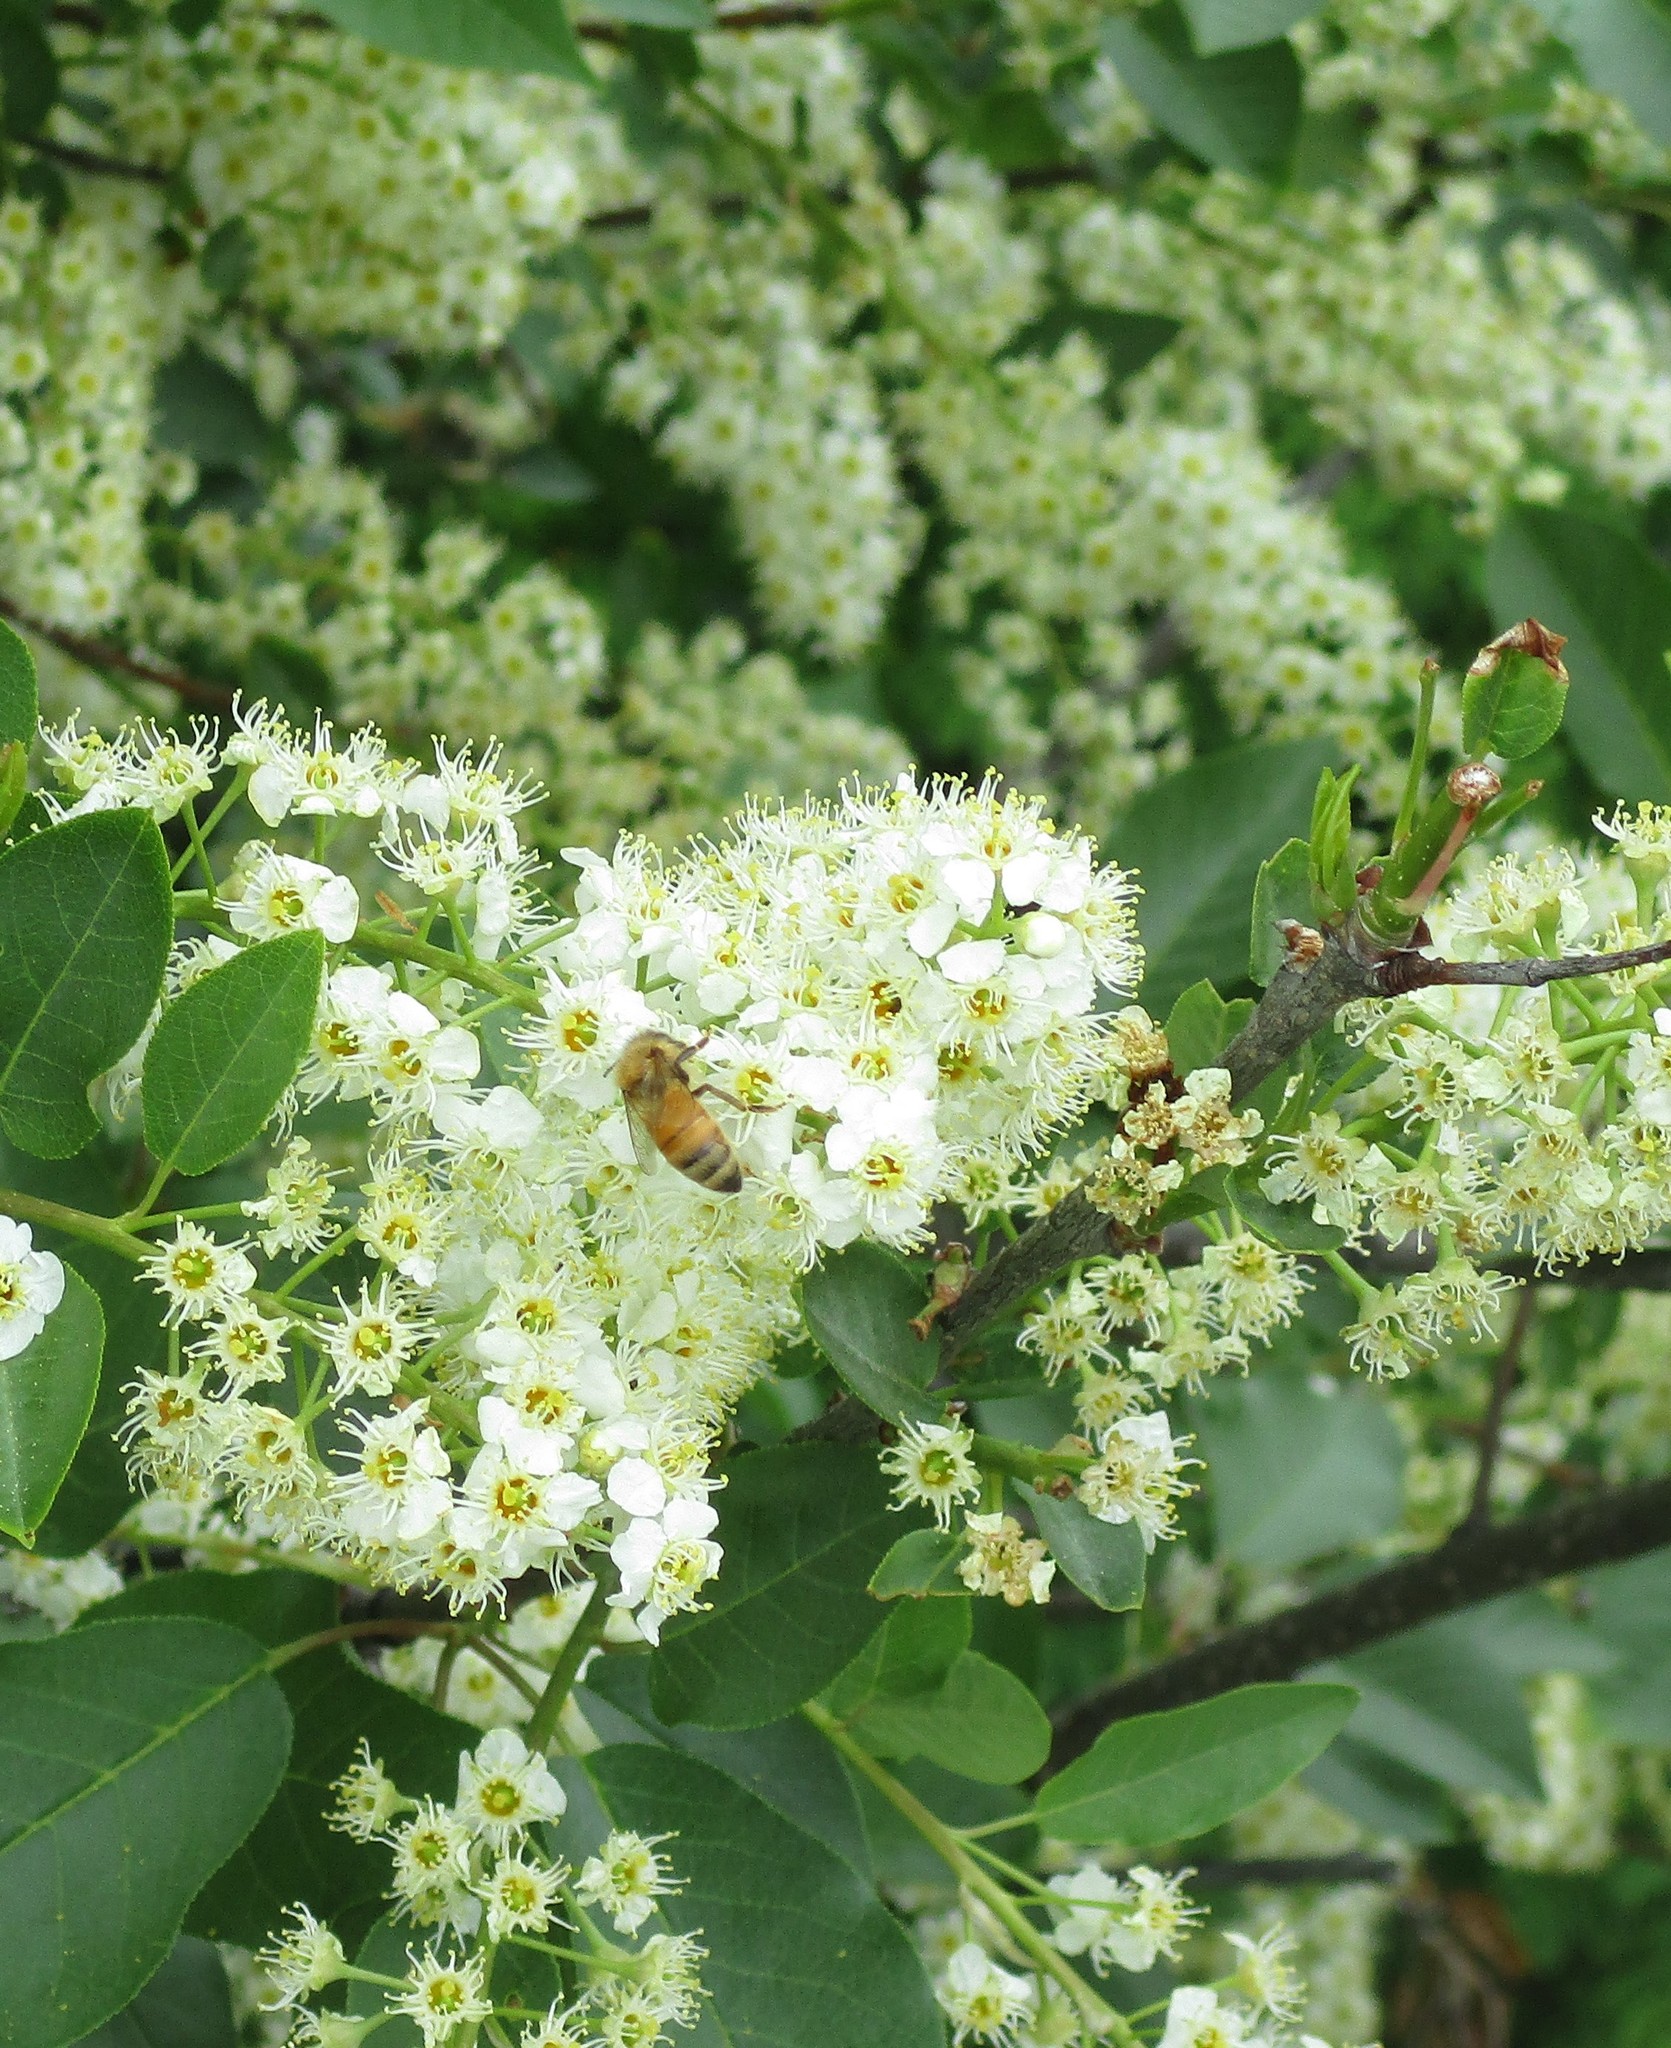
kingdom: Animalia
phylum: Arthropoda
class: Insecta
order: Hymenoptera
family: Apidae
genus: Apis
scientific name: Apis mellifera
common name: Honey bee
